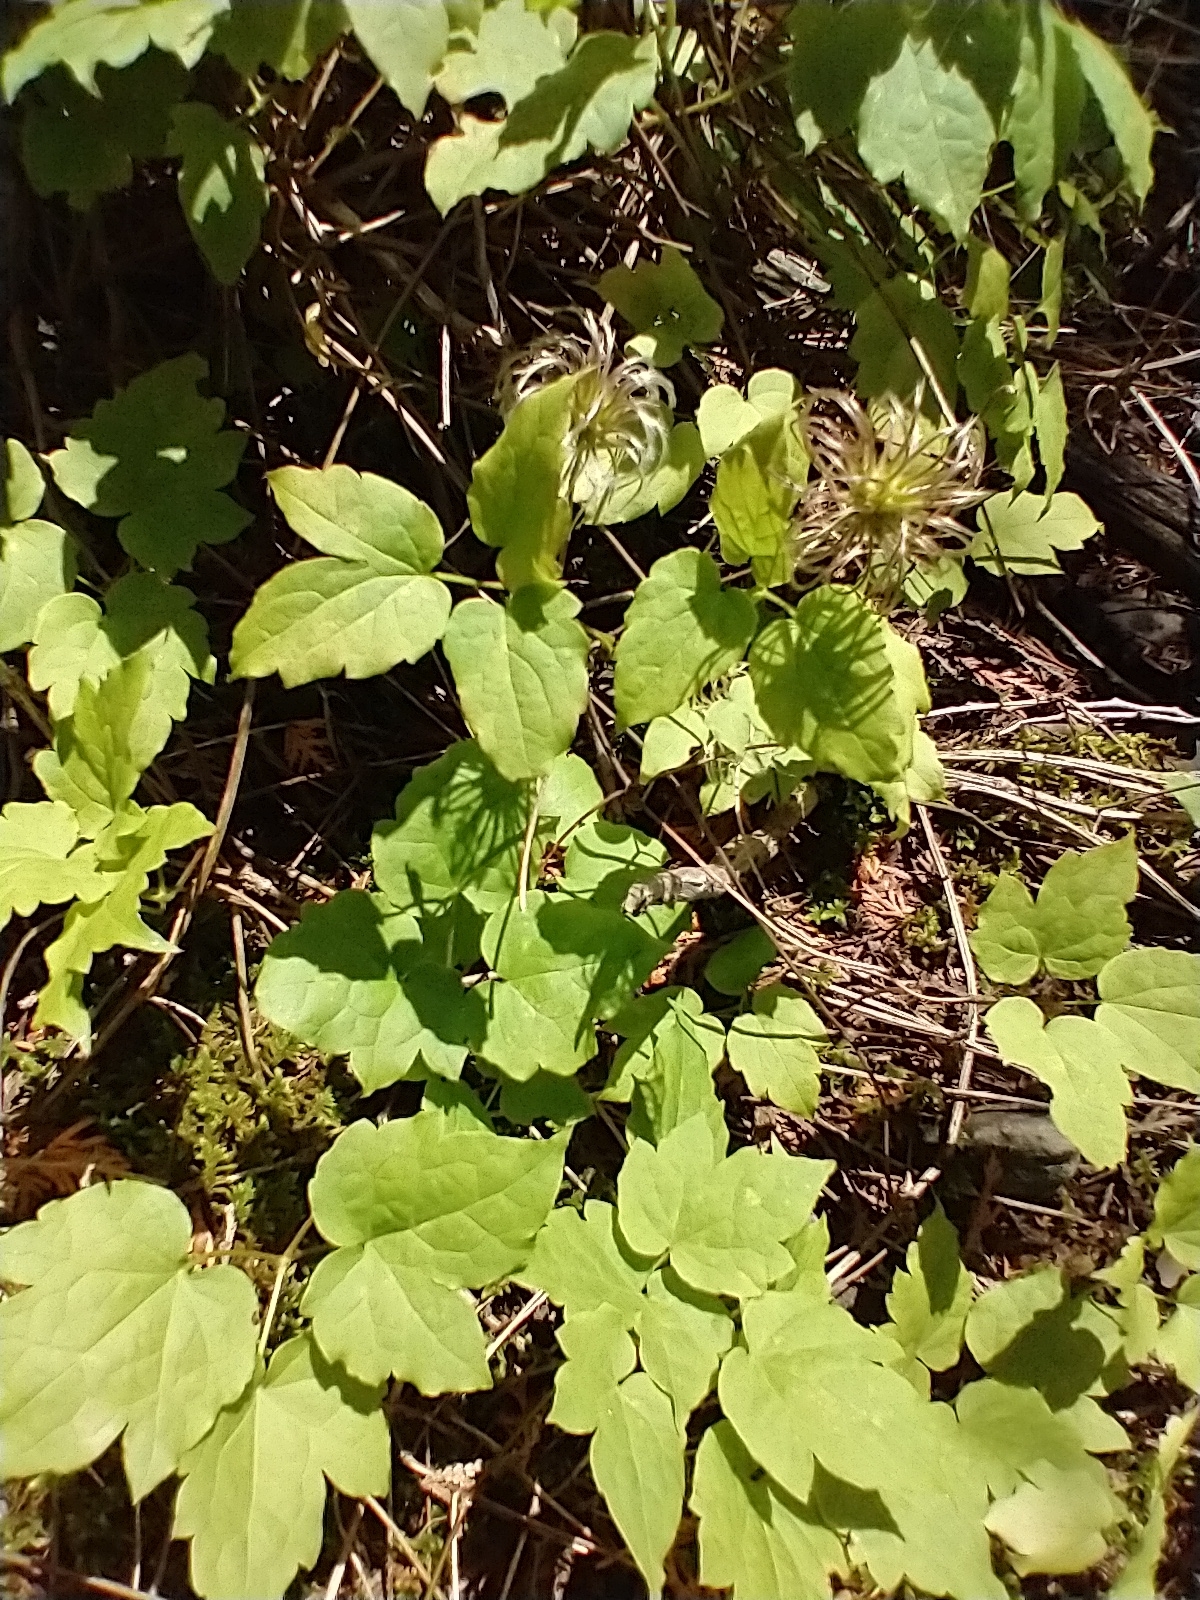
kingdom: Plantae
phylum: Tracheophyta
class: Magnoliopsida
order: Ranunculales
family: Ranunculaceae
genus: Clematis
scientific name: Clematis occidentalis
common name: Purple clematis
